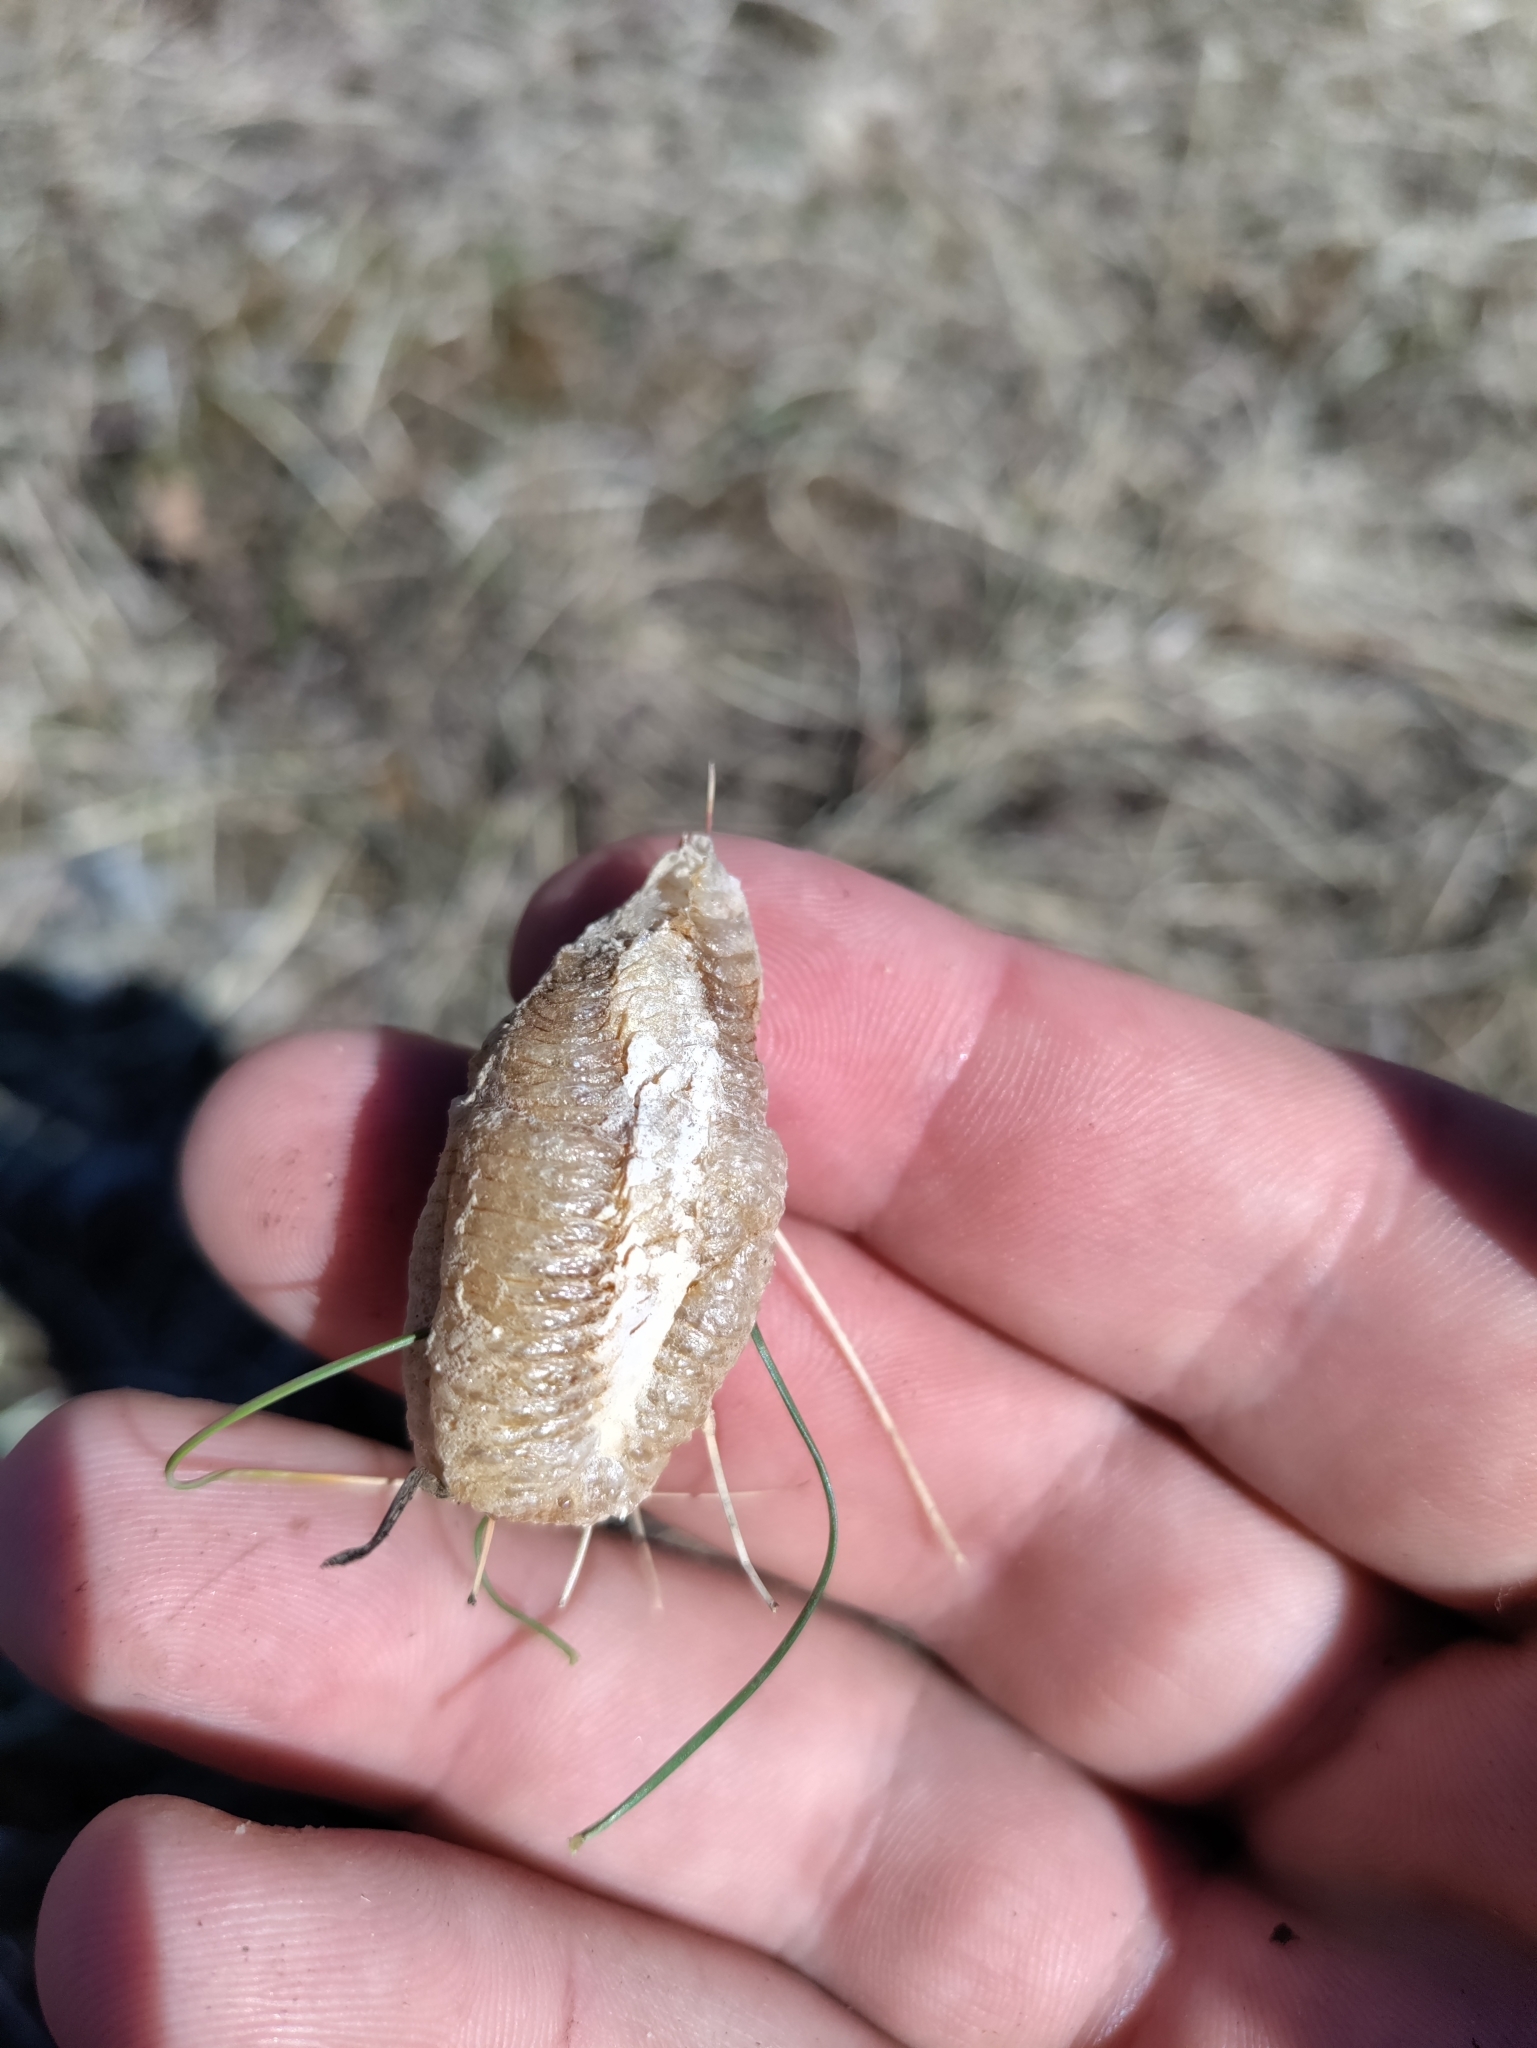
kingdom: Animalia
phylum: Arthropoda
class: Insecta
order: Mantodea
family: Mantidae
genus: Mantis
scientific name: Mantis religiosa
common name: Praying mantis
